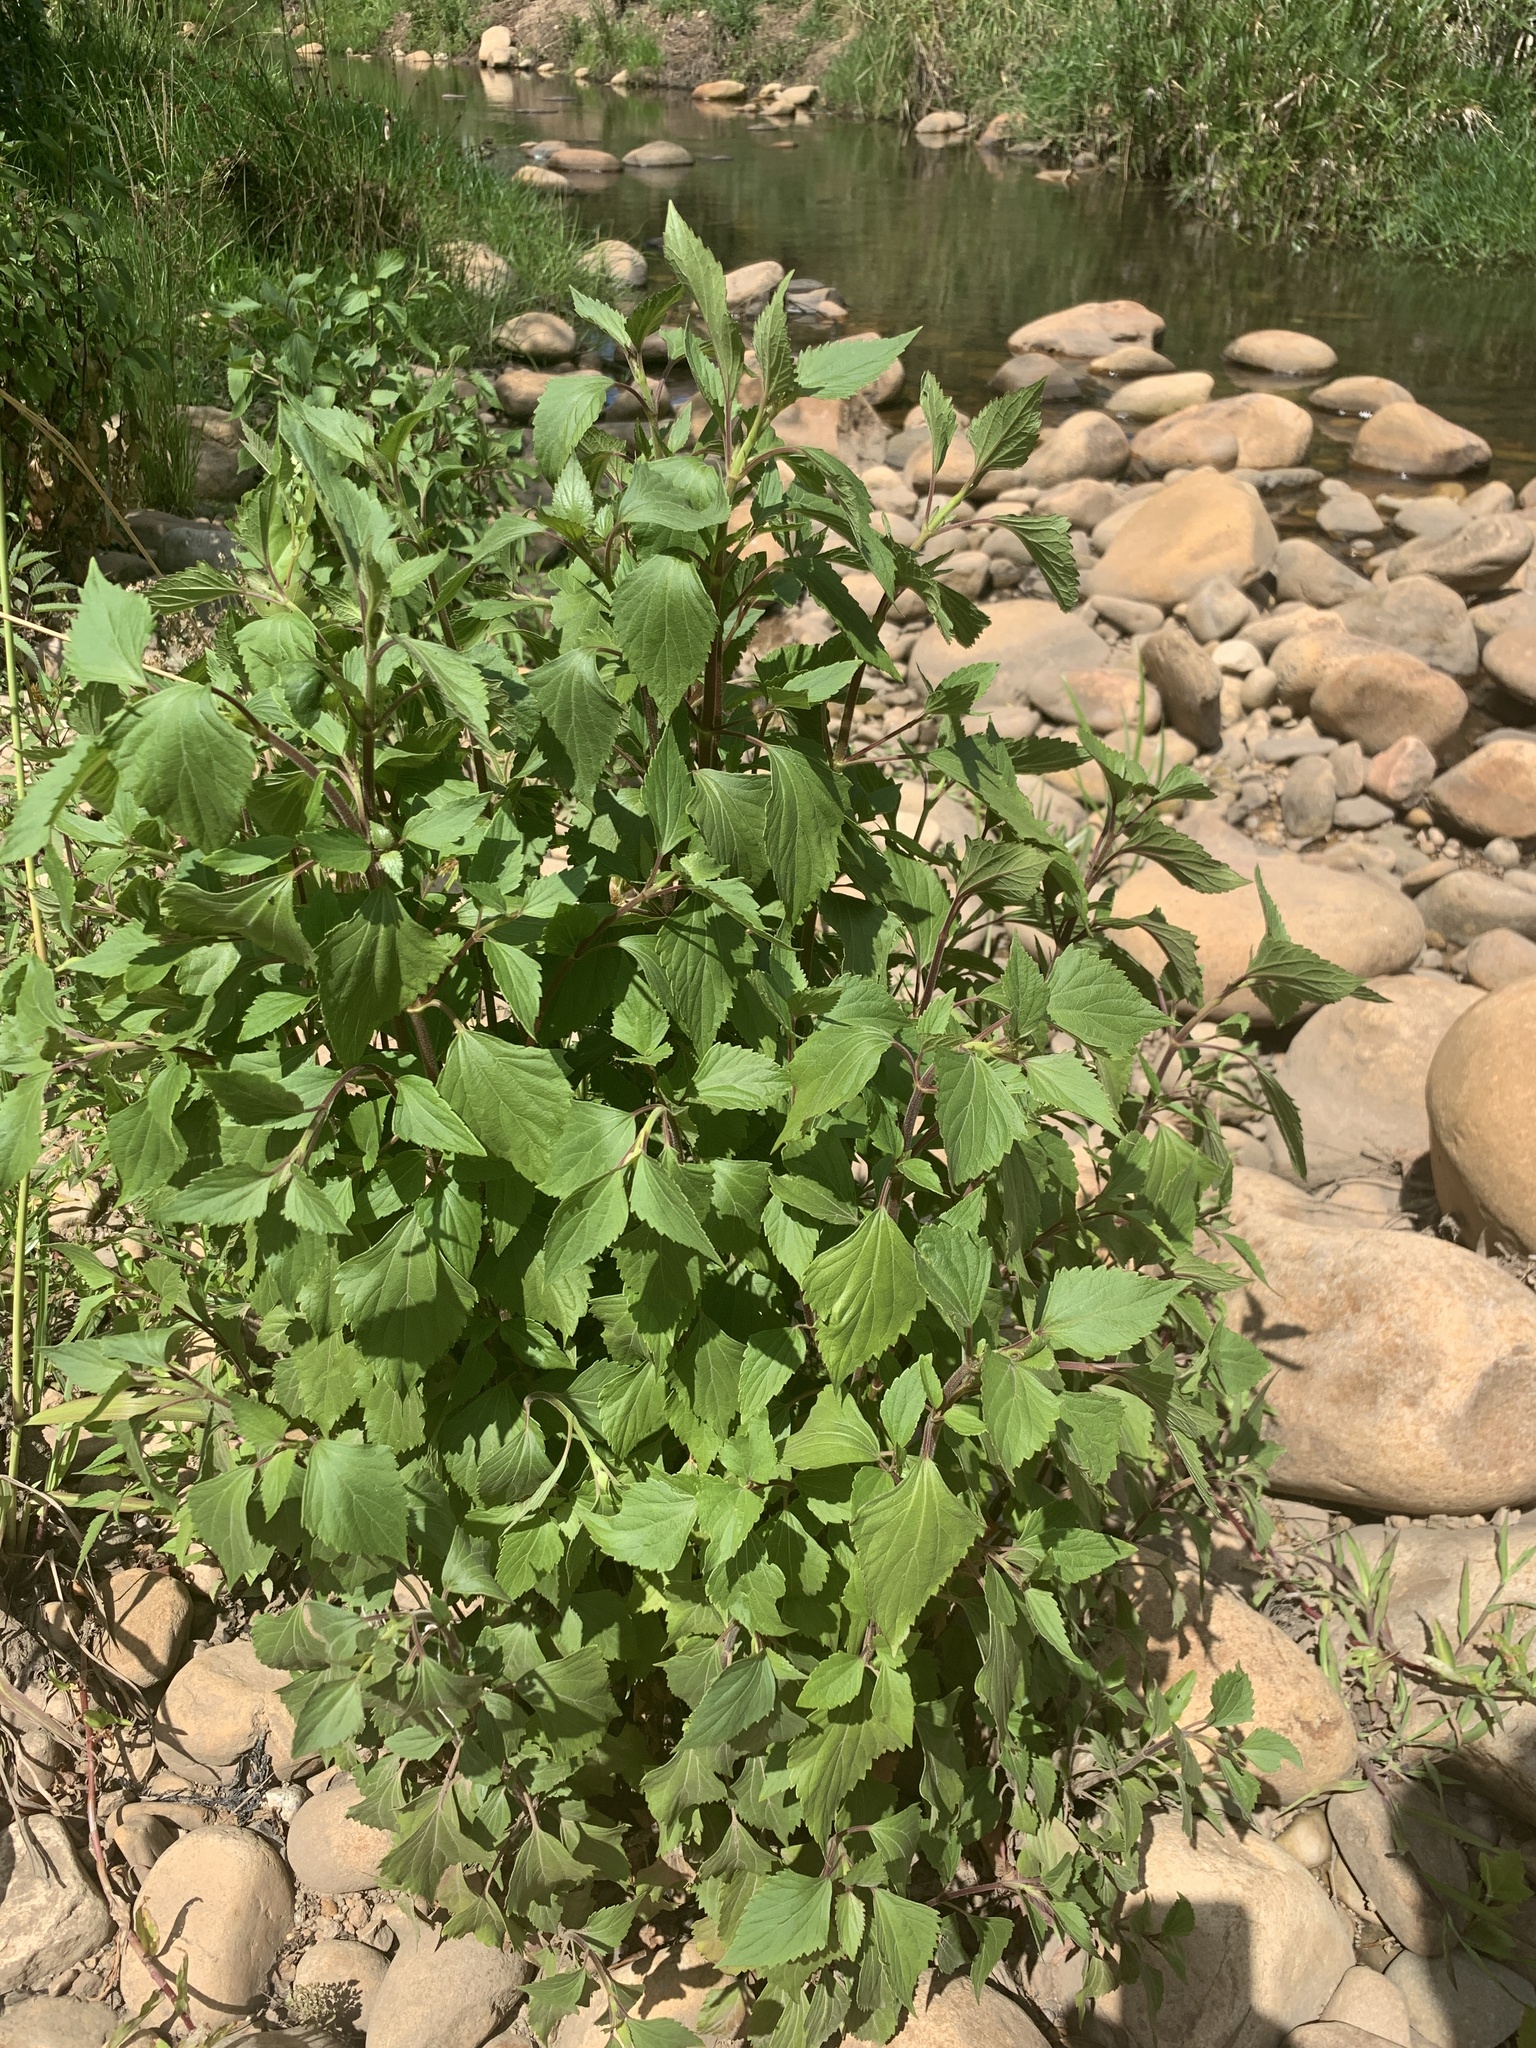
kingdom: Plantae
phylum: Tracheophyta
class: Magnoliopsida
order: Asterales
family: Asteraceae
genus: Ageratina
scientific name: Ageratina adenophora
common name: Sticky snakeroot
